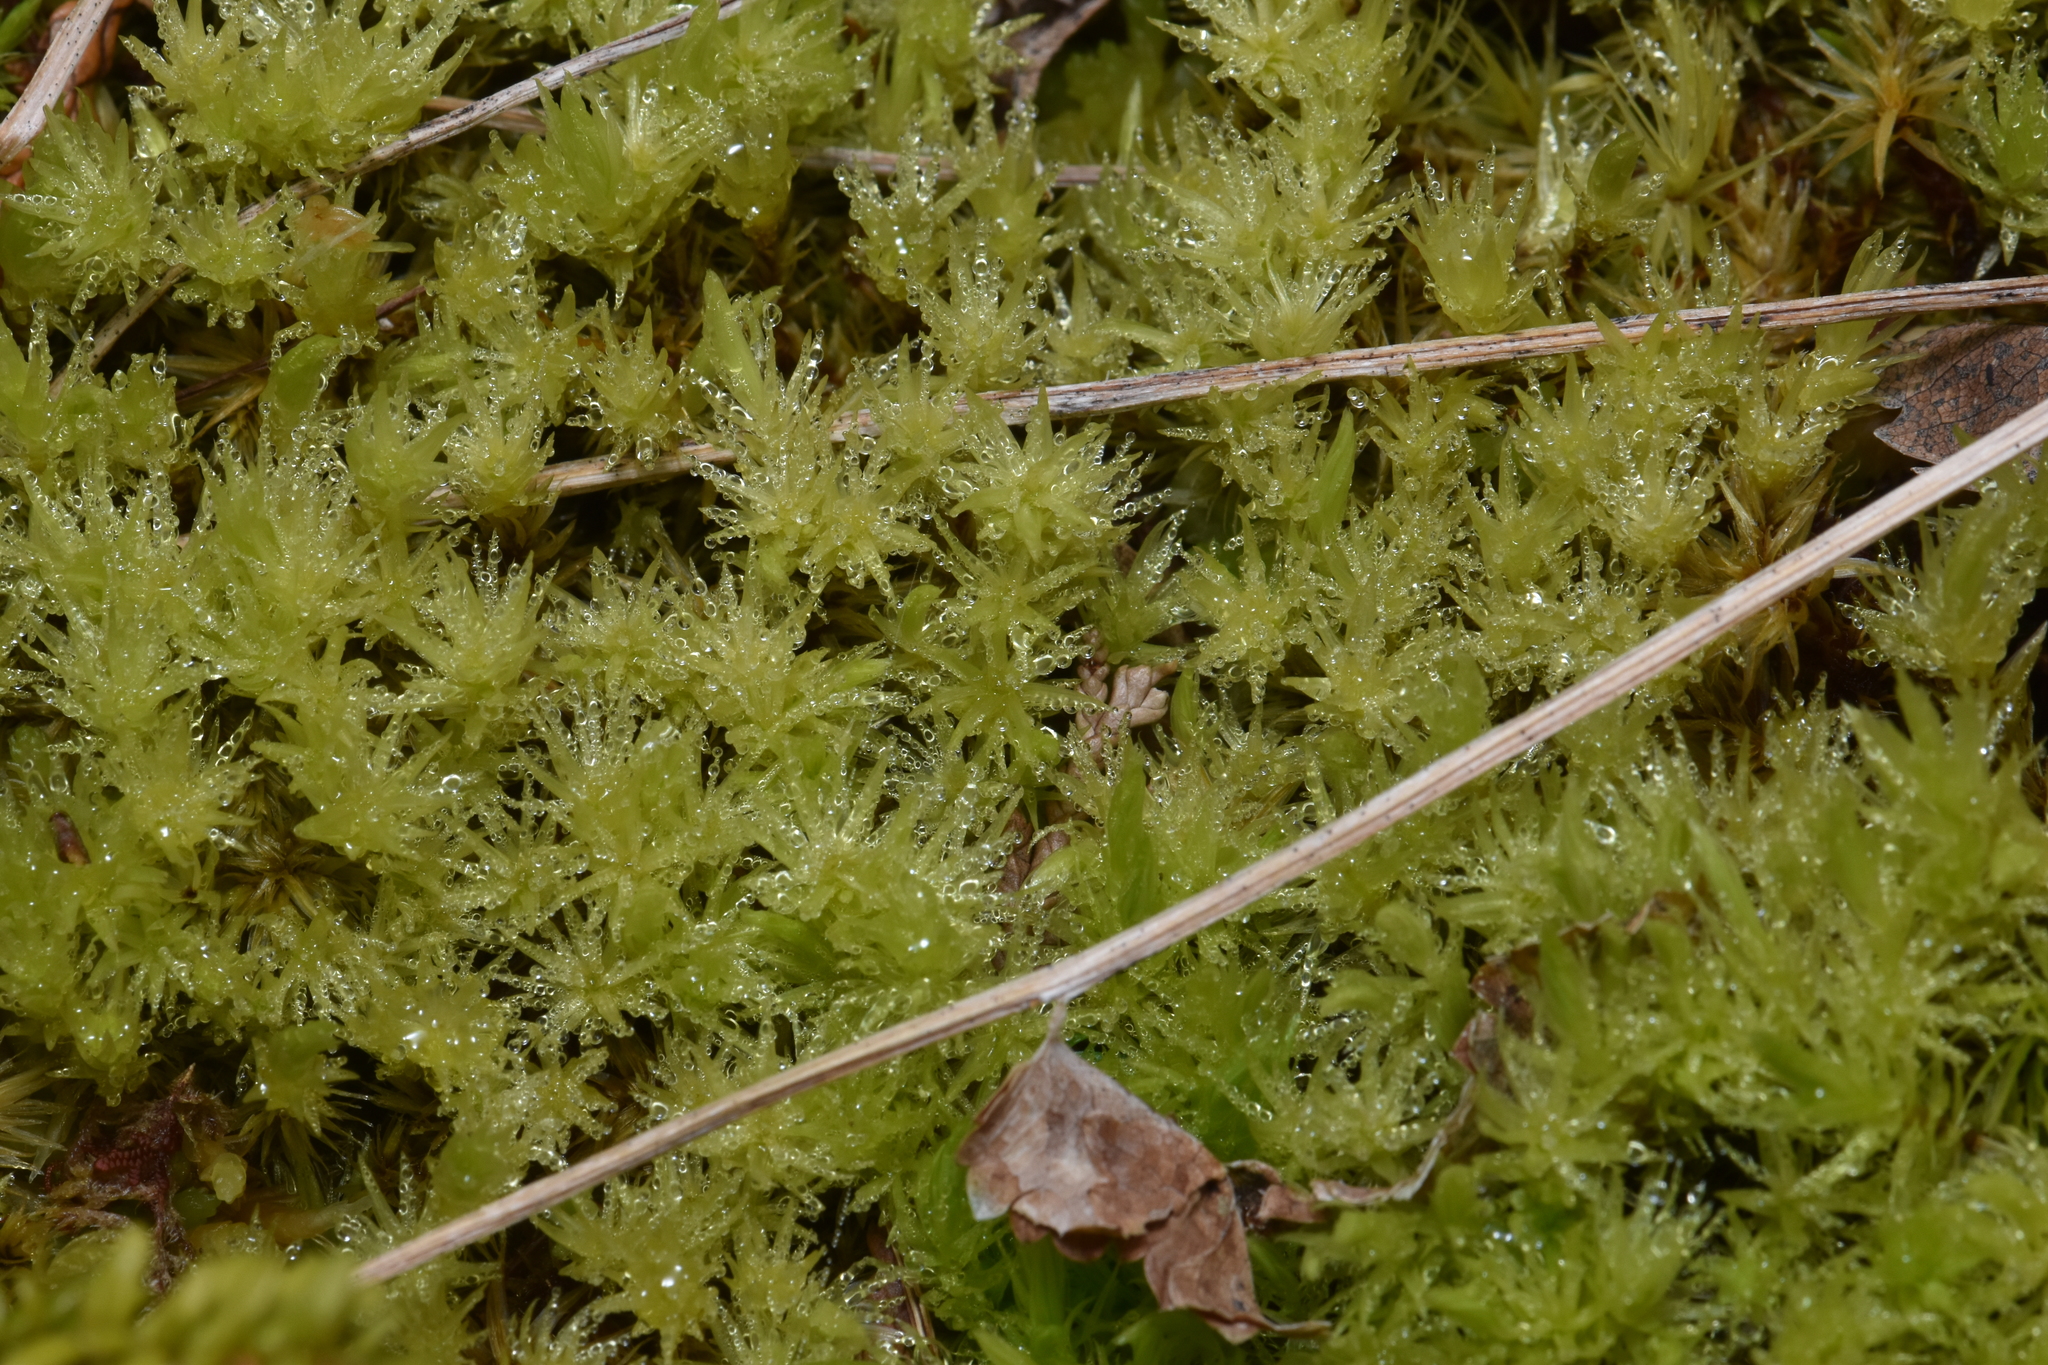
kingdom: Plantae
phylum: Bryophyta
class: Bryopsida
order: Aulacomniales
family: Aulacomniaceae
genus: Aulacomnium
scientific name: Aulacomnium palustre
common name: Bog groove-moss
